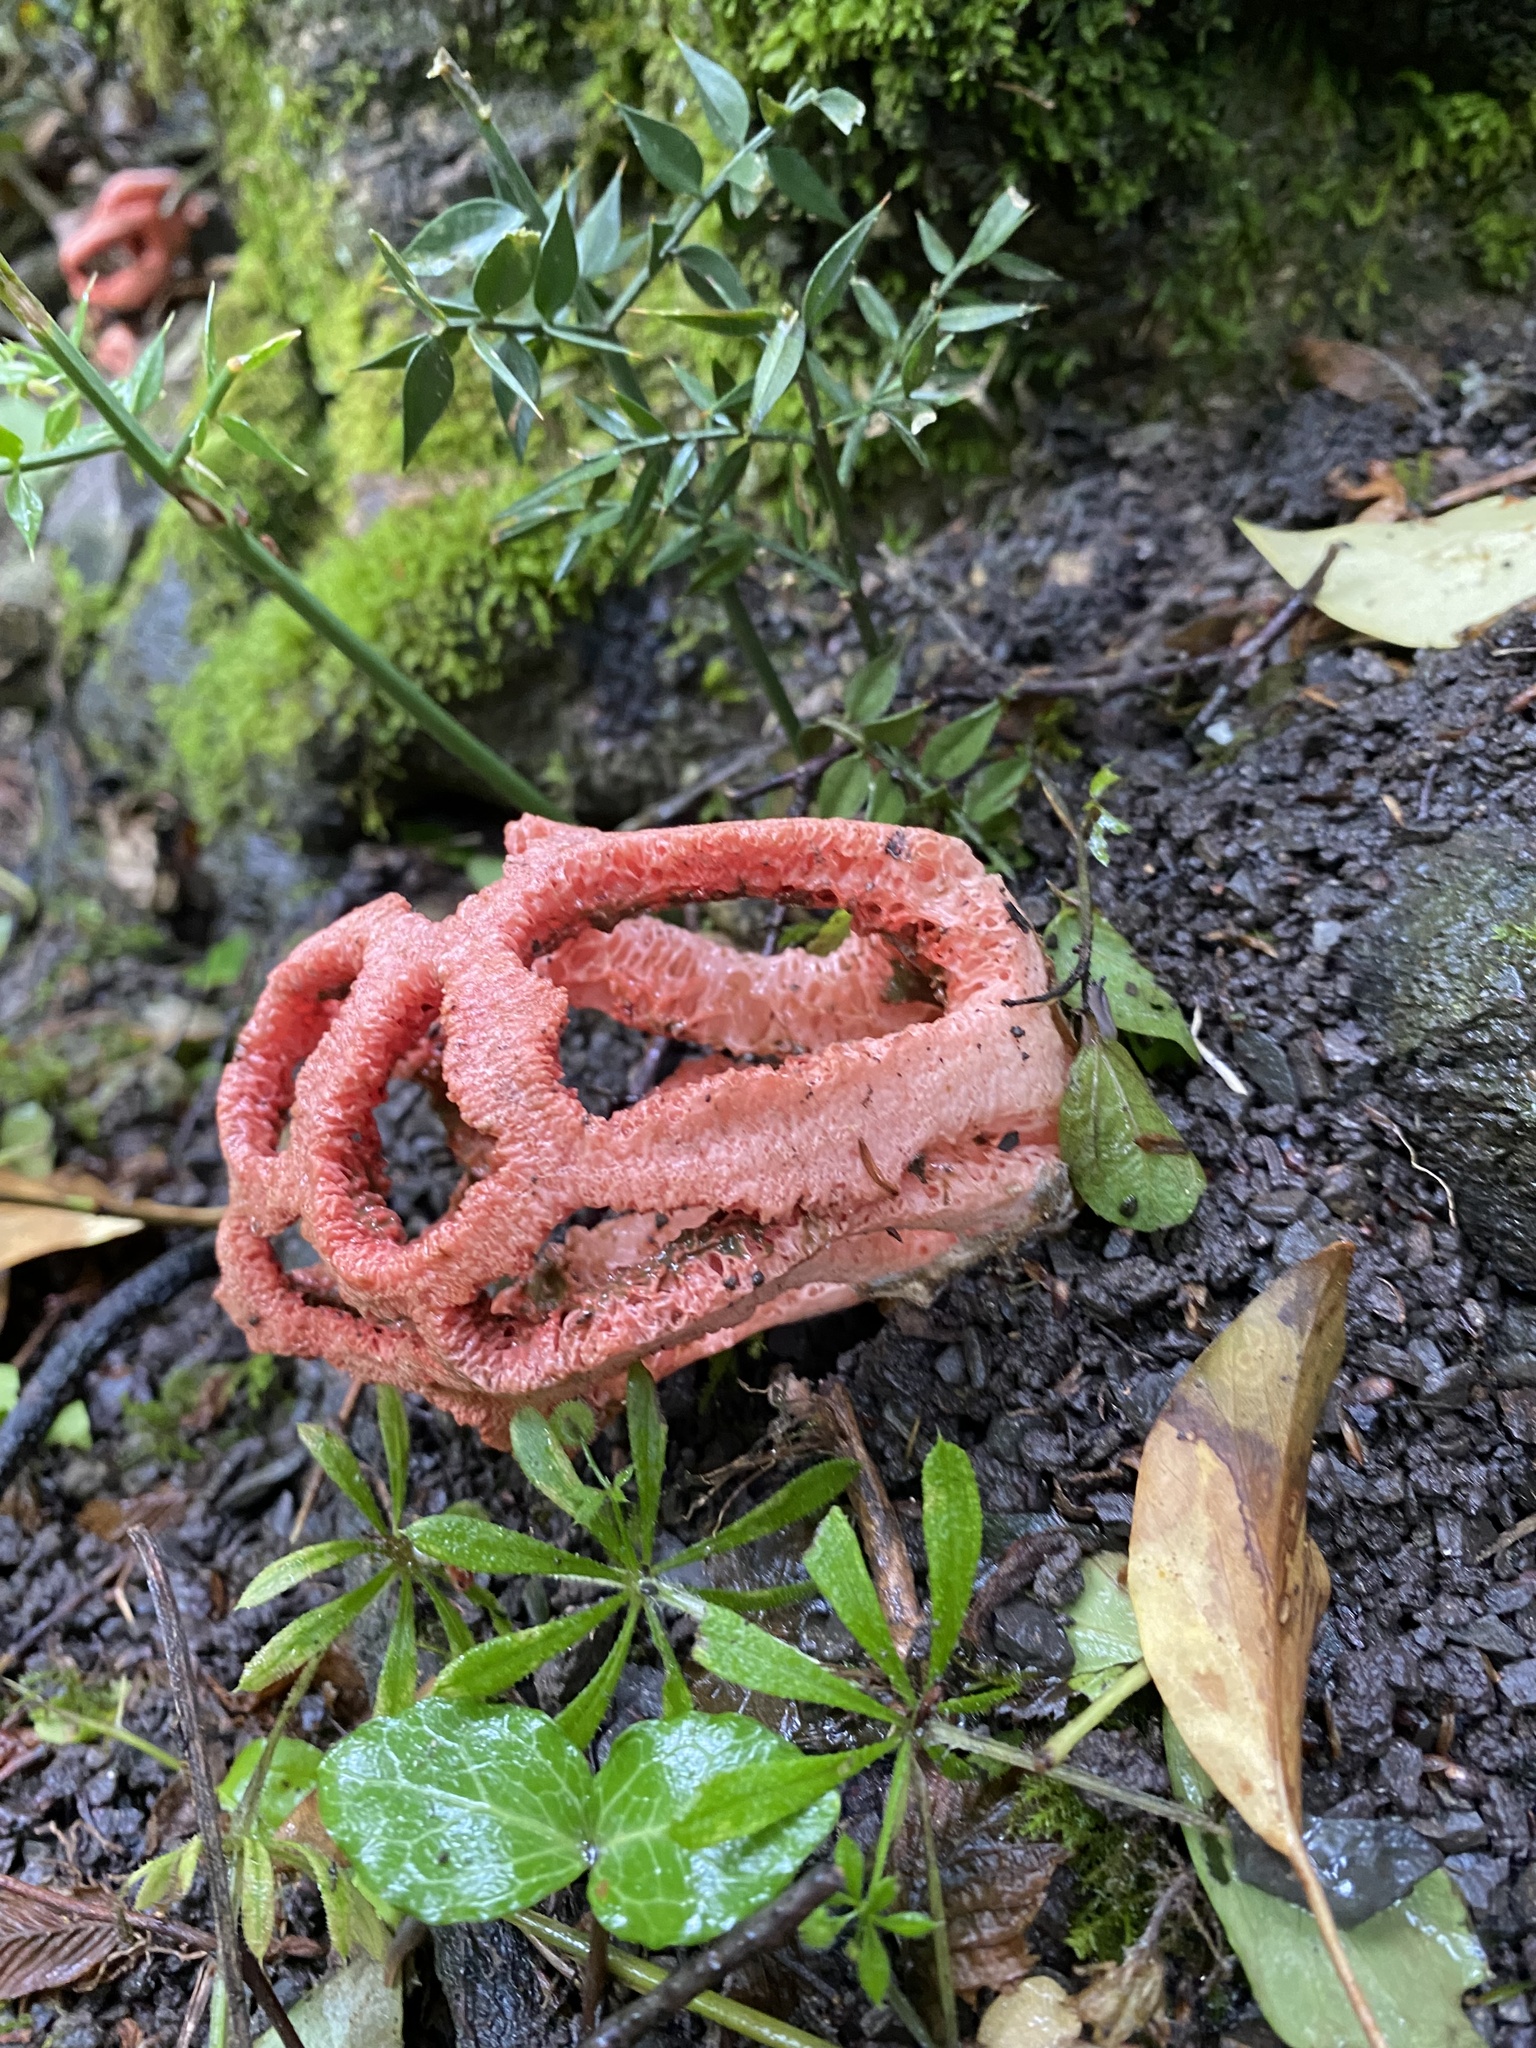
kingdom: Fungi
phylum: Basidiomycota
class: Agaricomycetes
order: Phallales
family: Phallaceae
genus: Clathrus
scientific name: Clathrus ruber
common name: Red cage
